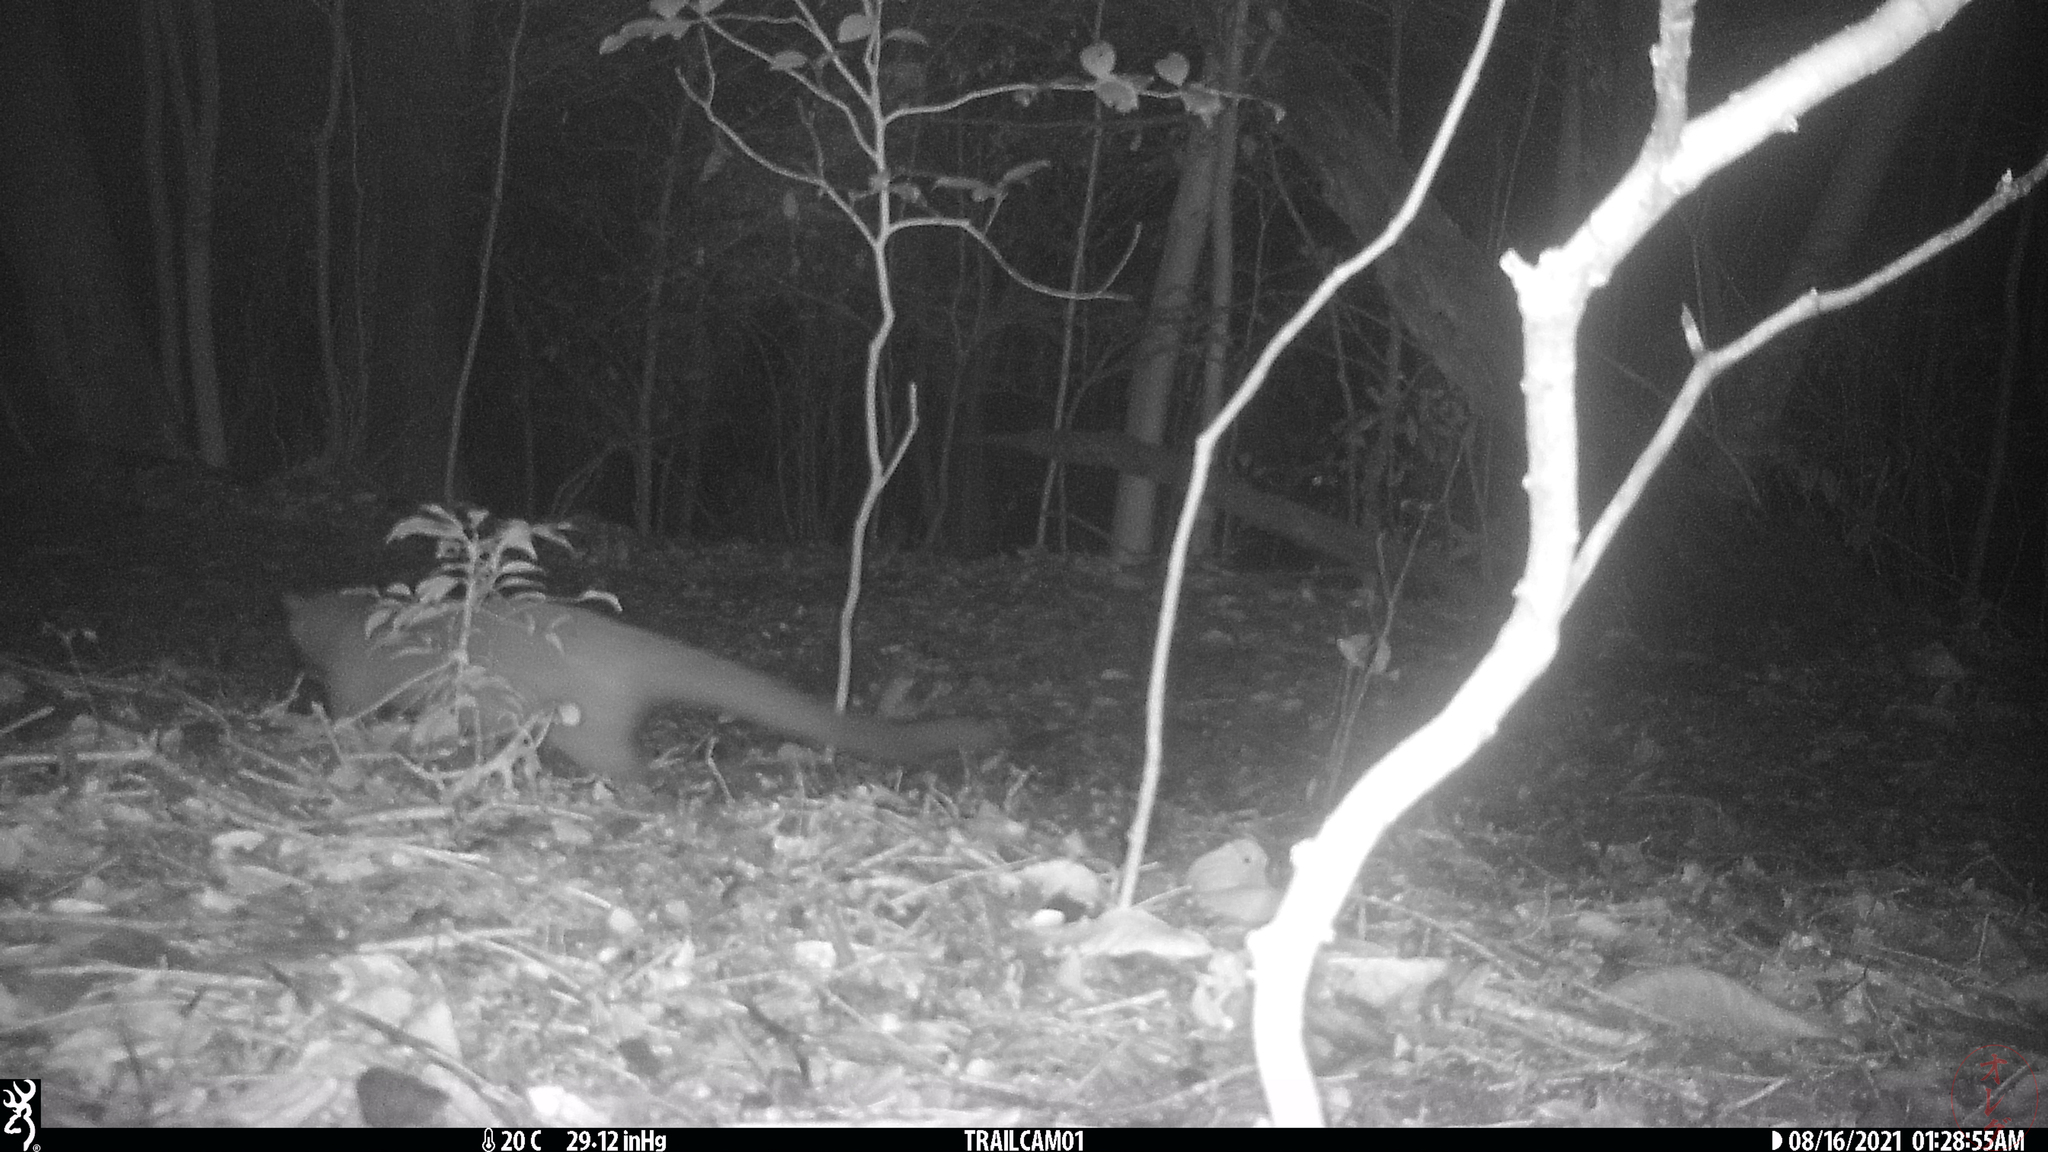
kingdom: Animalia
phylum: Chordata
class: Mammalia
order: Carnivora
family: Viverridae
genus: Paguma
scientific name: Paguma larvata
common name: Masked palm civet
